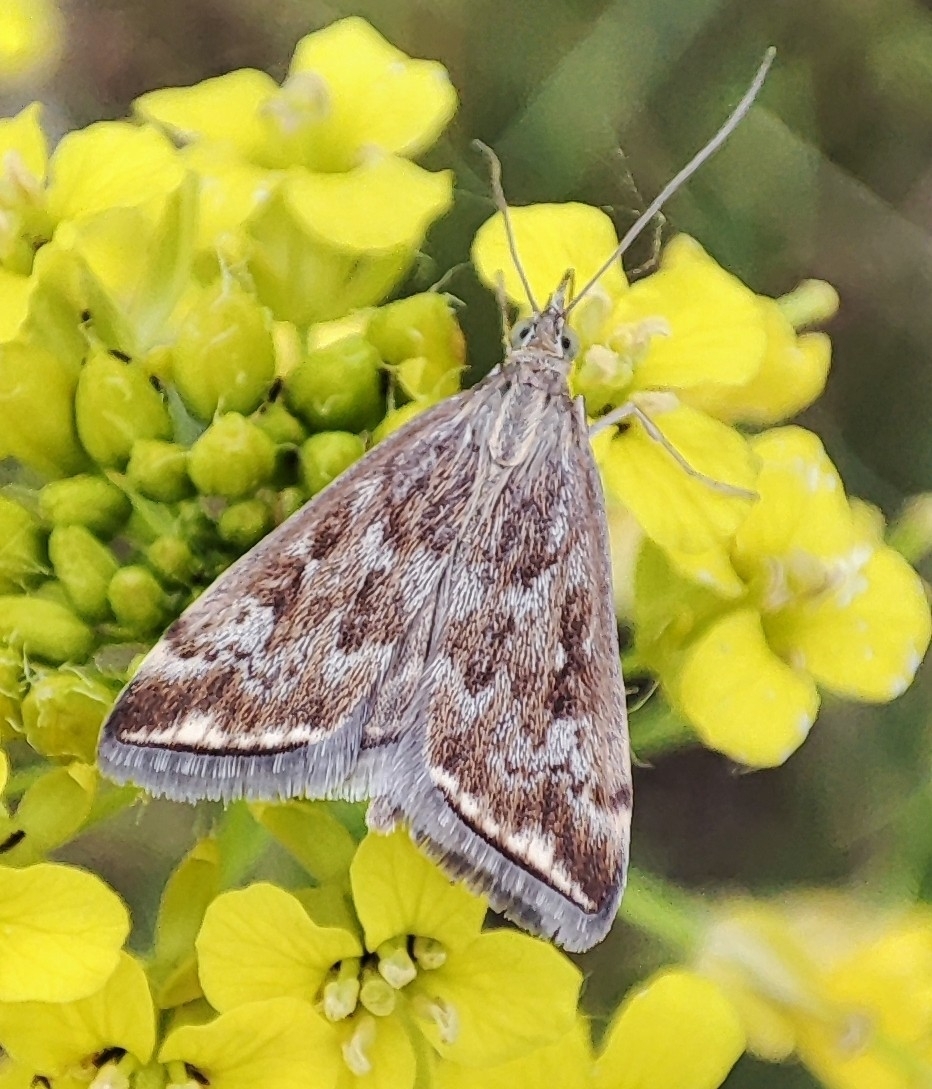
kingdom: Animalia
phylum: Arthropoda
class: Insecta
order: Lepidoptera
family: Crambidae
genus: Loxostege
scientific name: Loxostege sticticalis
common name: Crambid moth
